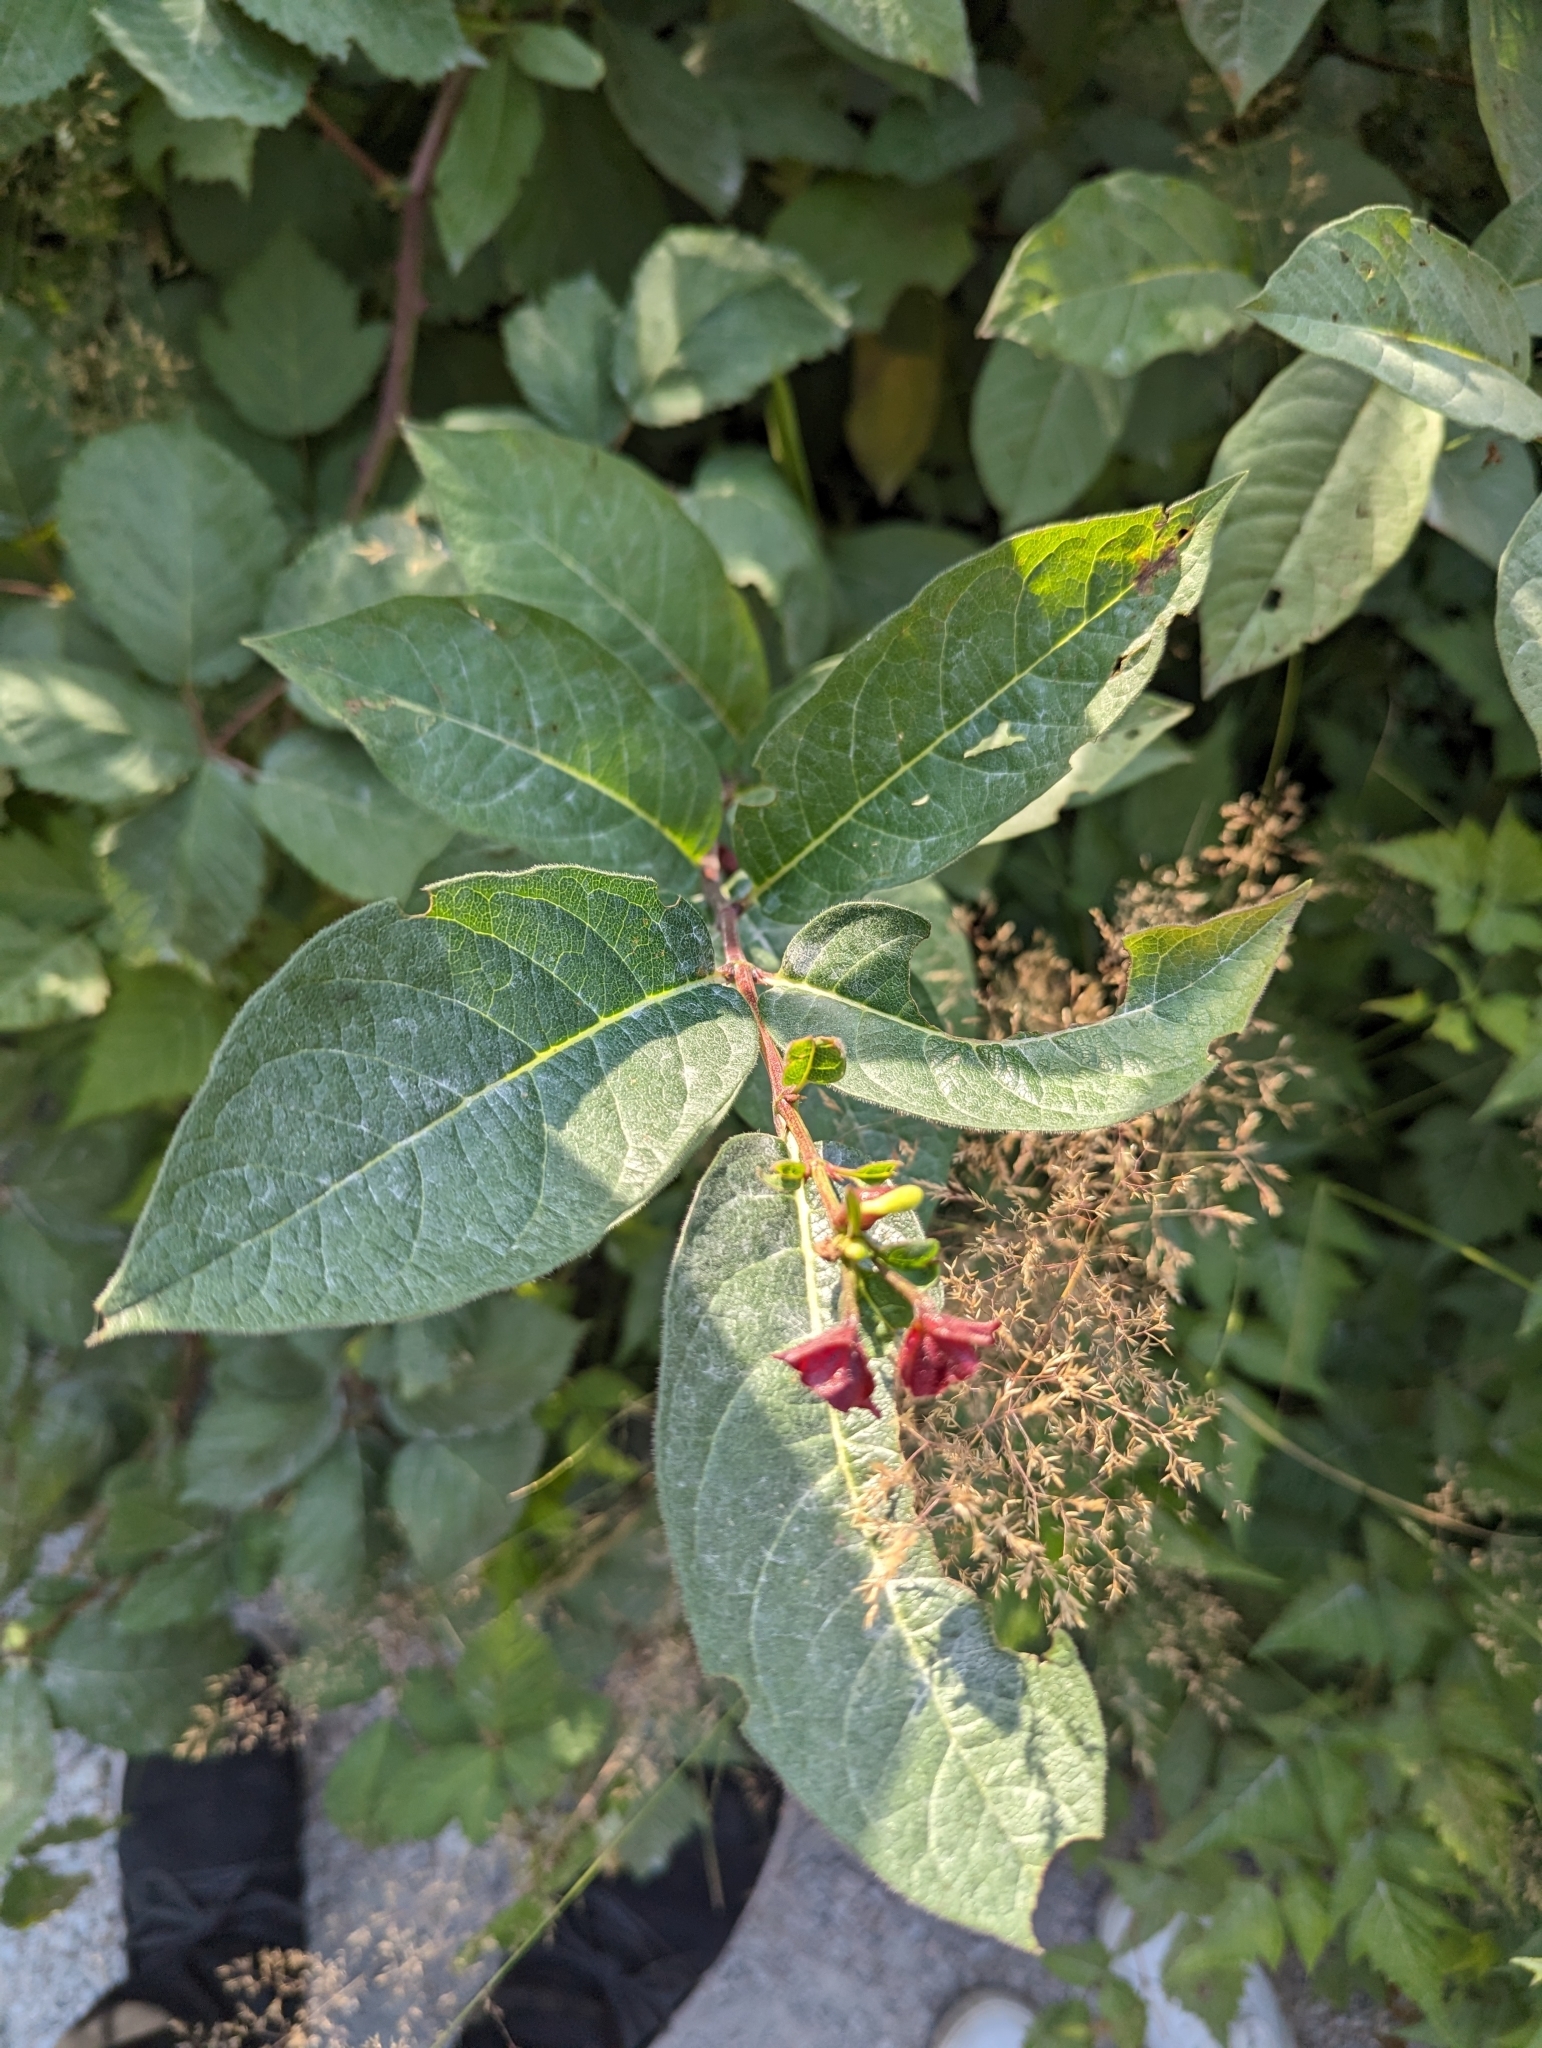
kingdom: Plantae
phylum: Tracheophyta
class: Magnoliopsida
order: Dipsacales
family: Caprifoliaceae
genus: Lonicera
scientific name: Lonicera involucrata
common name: Californian honeysuckle
